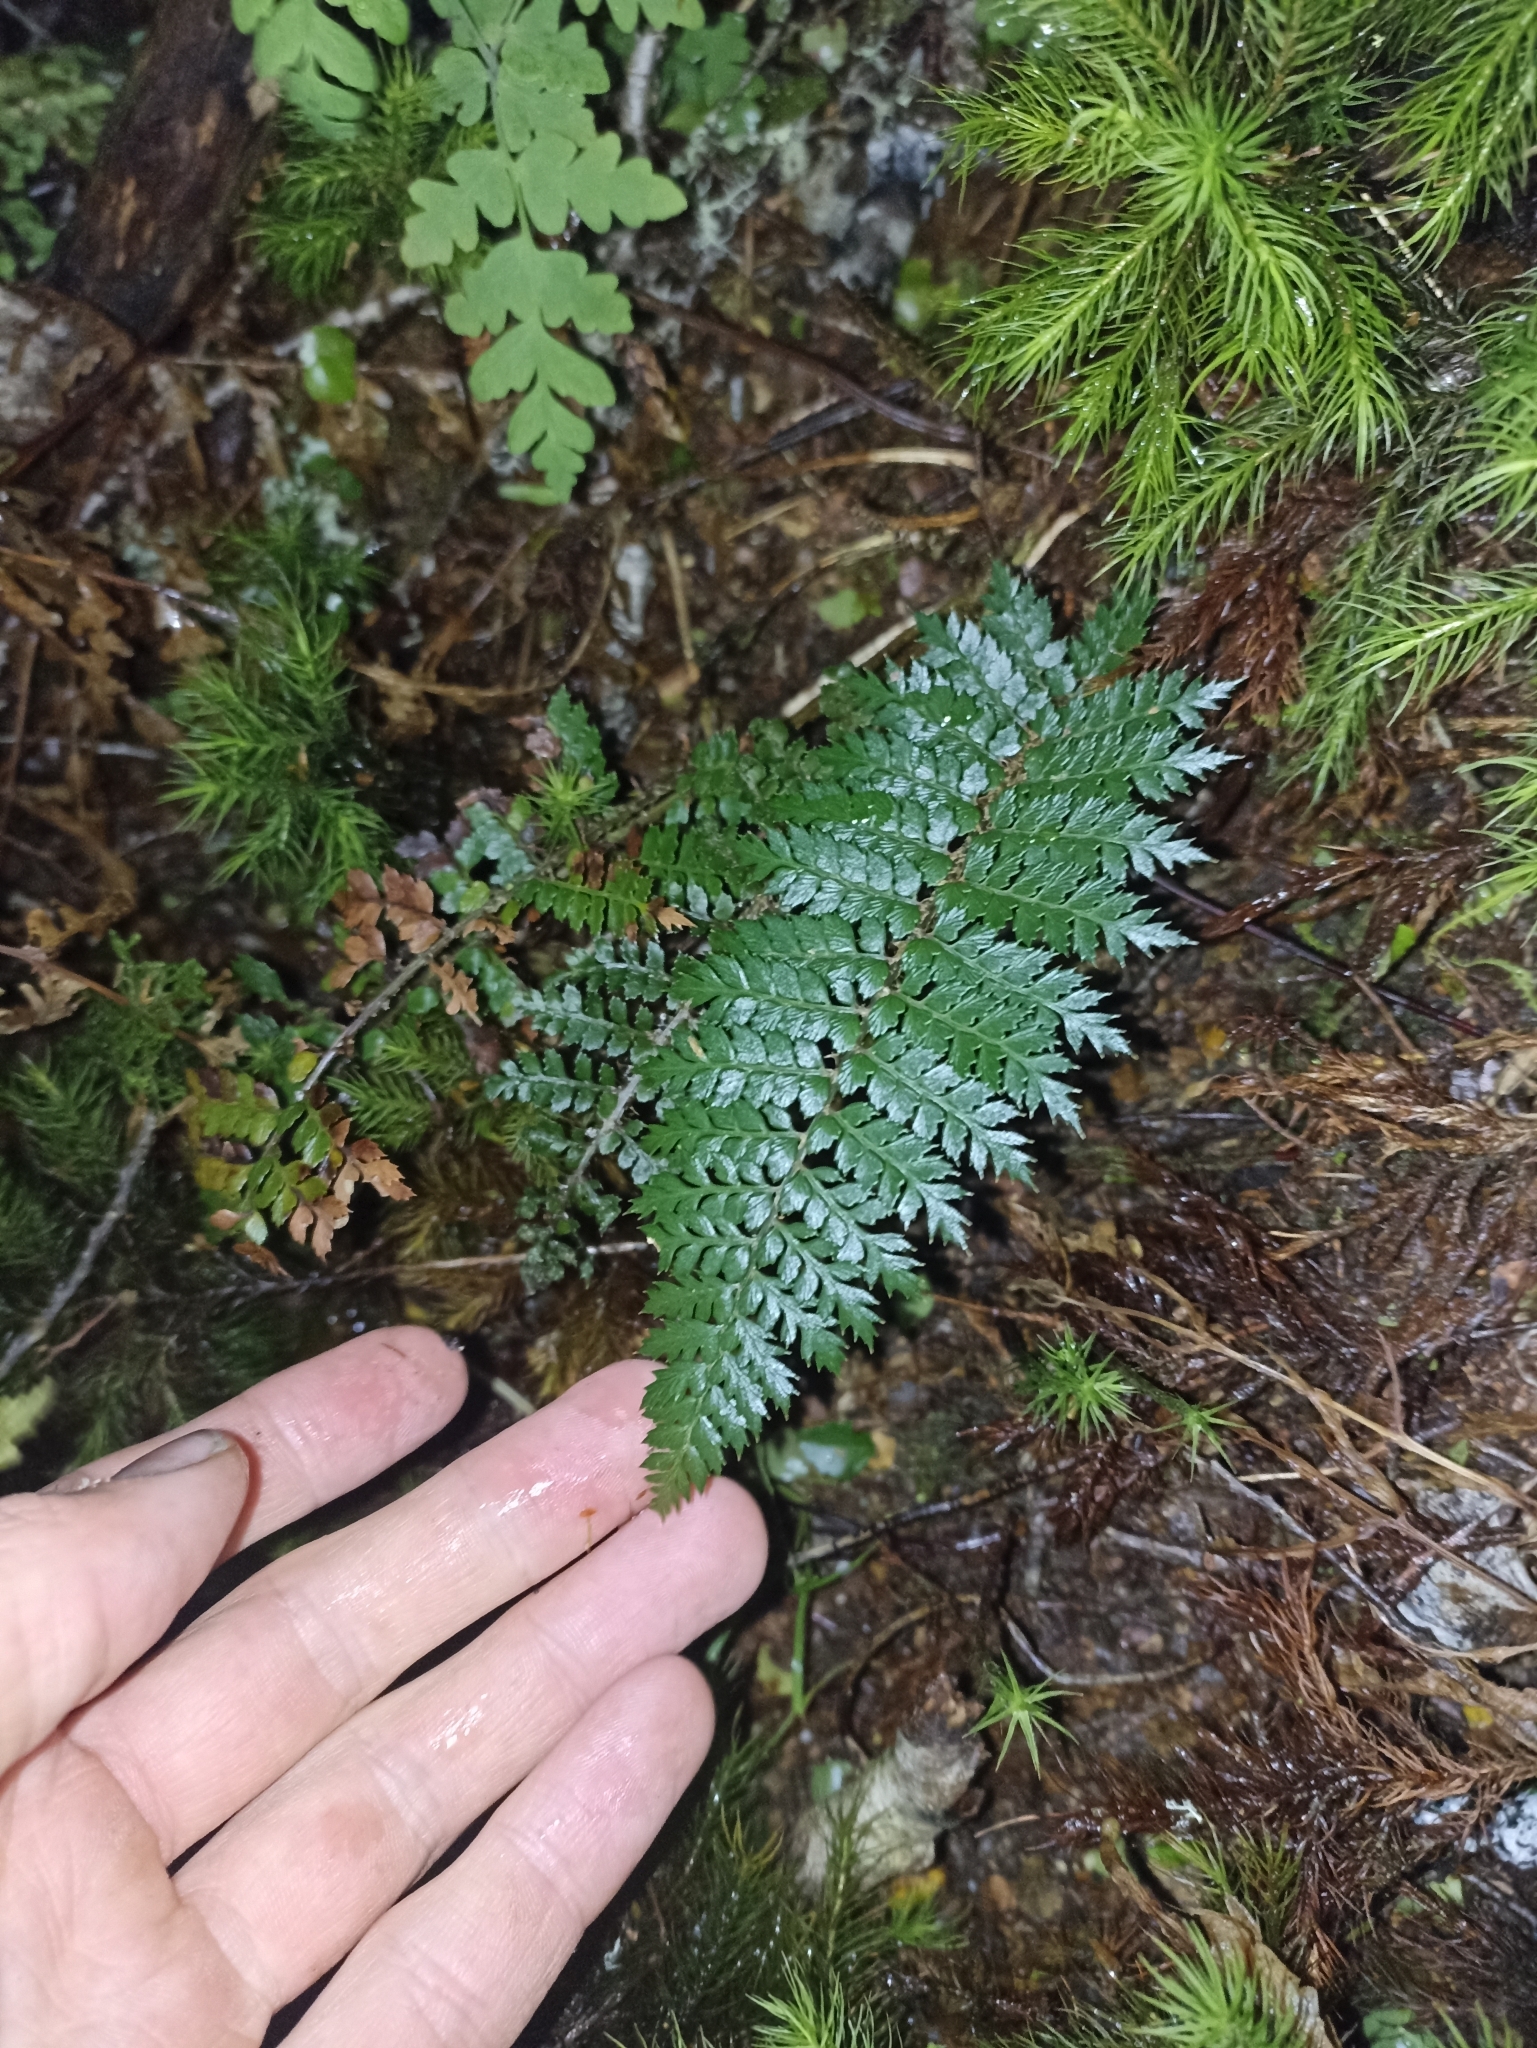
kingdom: Plantae
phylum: Tracheophyta
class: Polypodiopsida
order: Polypodiales
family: Dryopteridaceae
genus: Polystichum
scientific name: Polystichum vestitum
